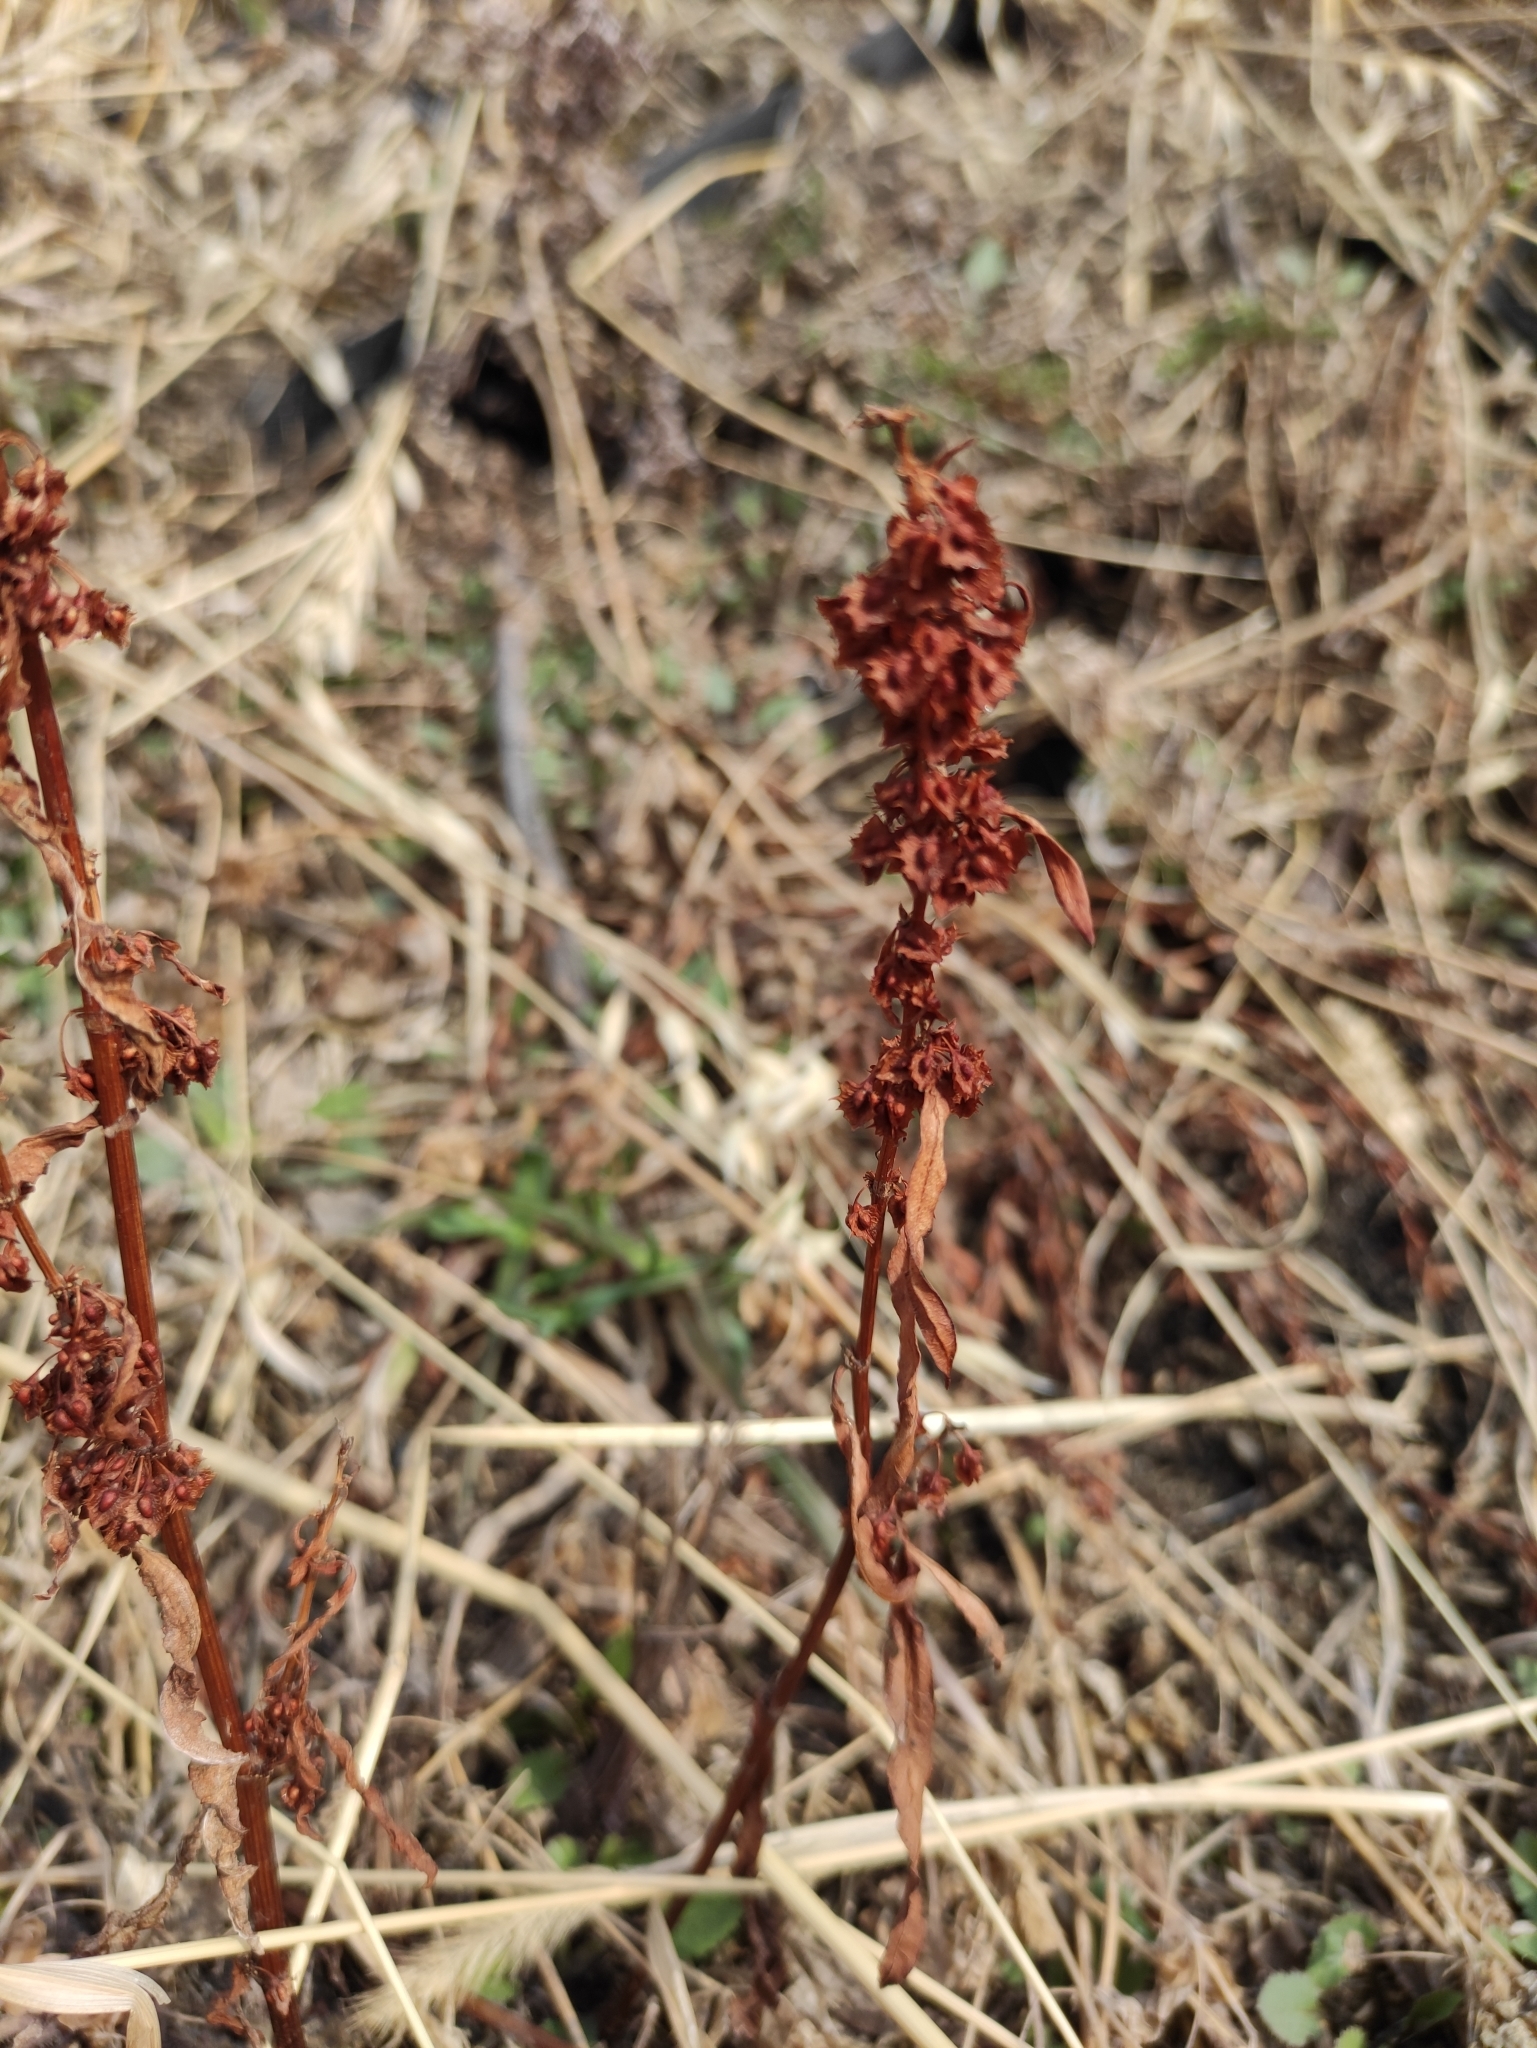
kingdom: Plantae
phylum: Tracheophyta
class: Magnoliopsida
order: Caryophyllales
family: Polygonaceae
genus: Rumex
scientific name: Rumex stenophyllus
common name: Narrowleaf dock
